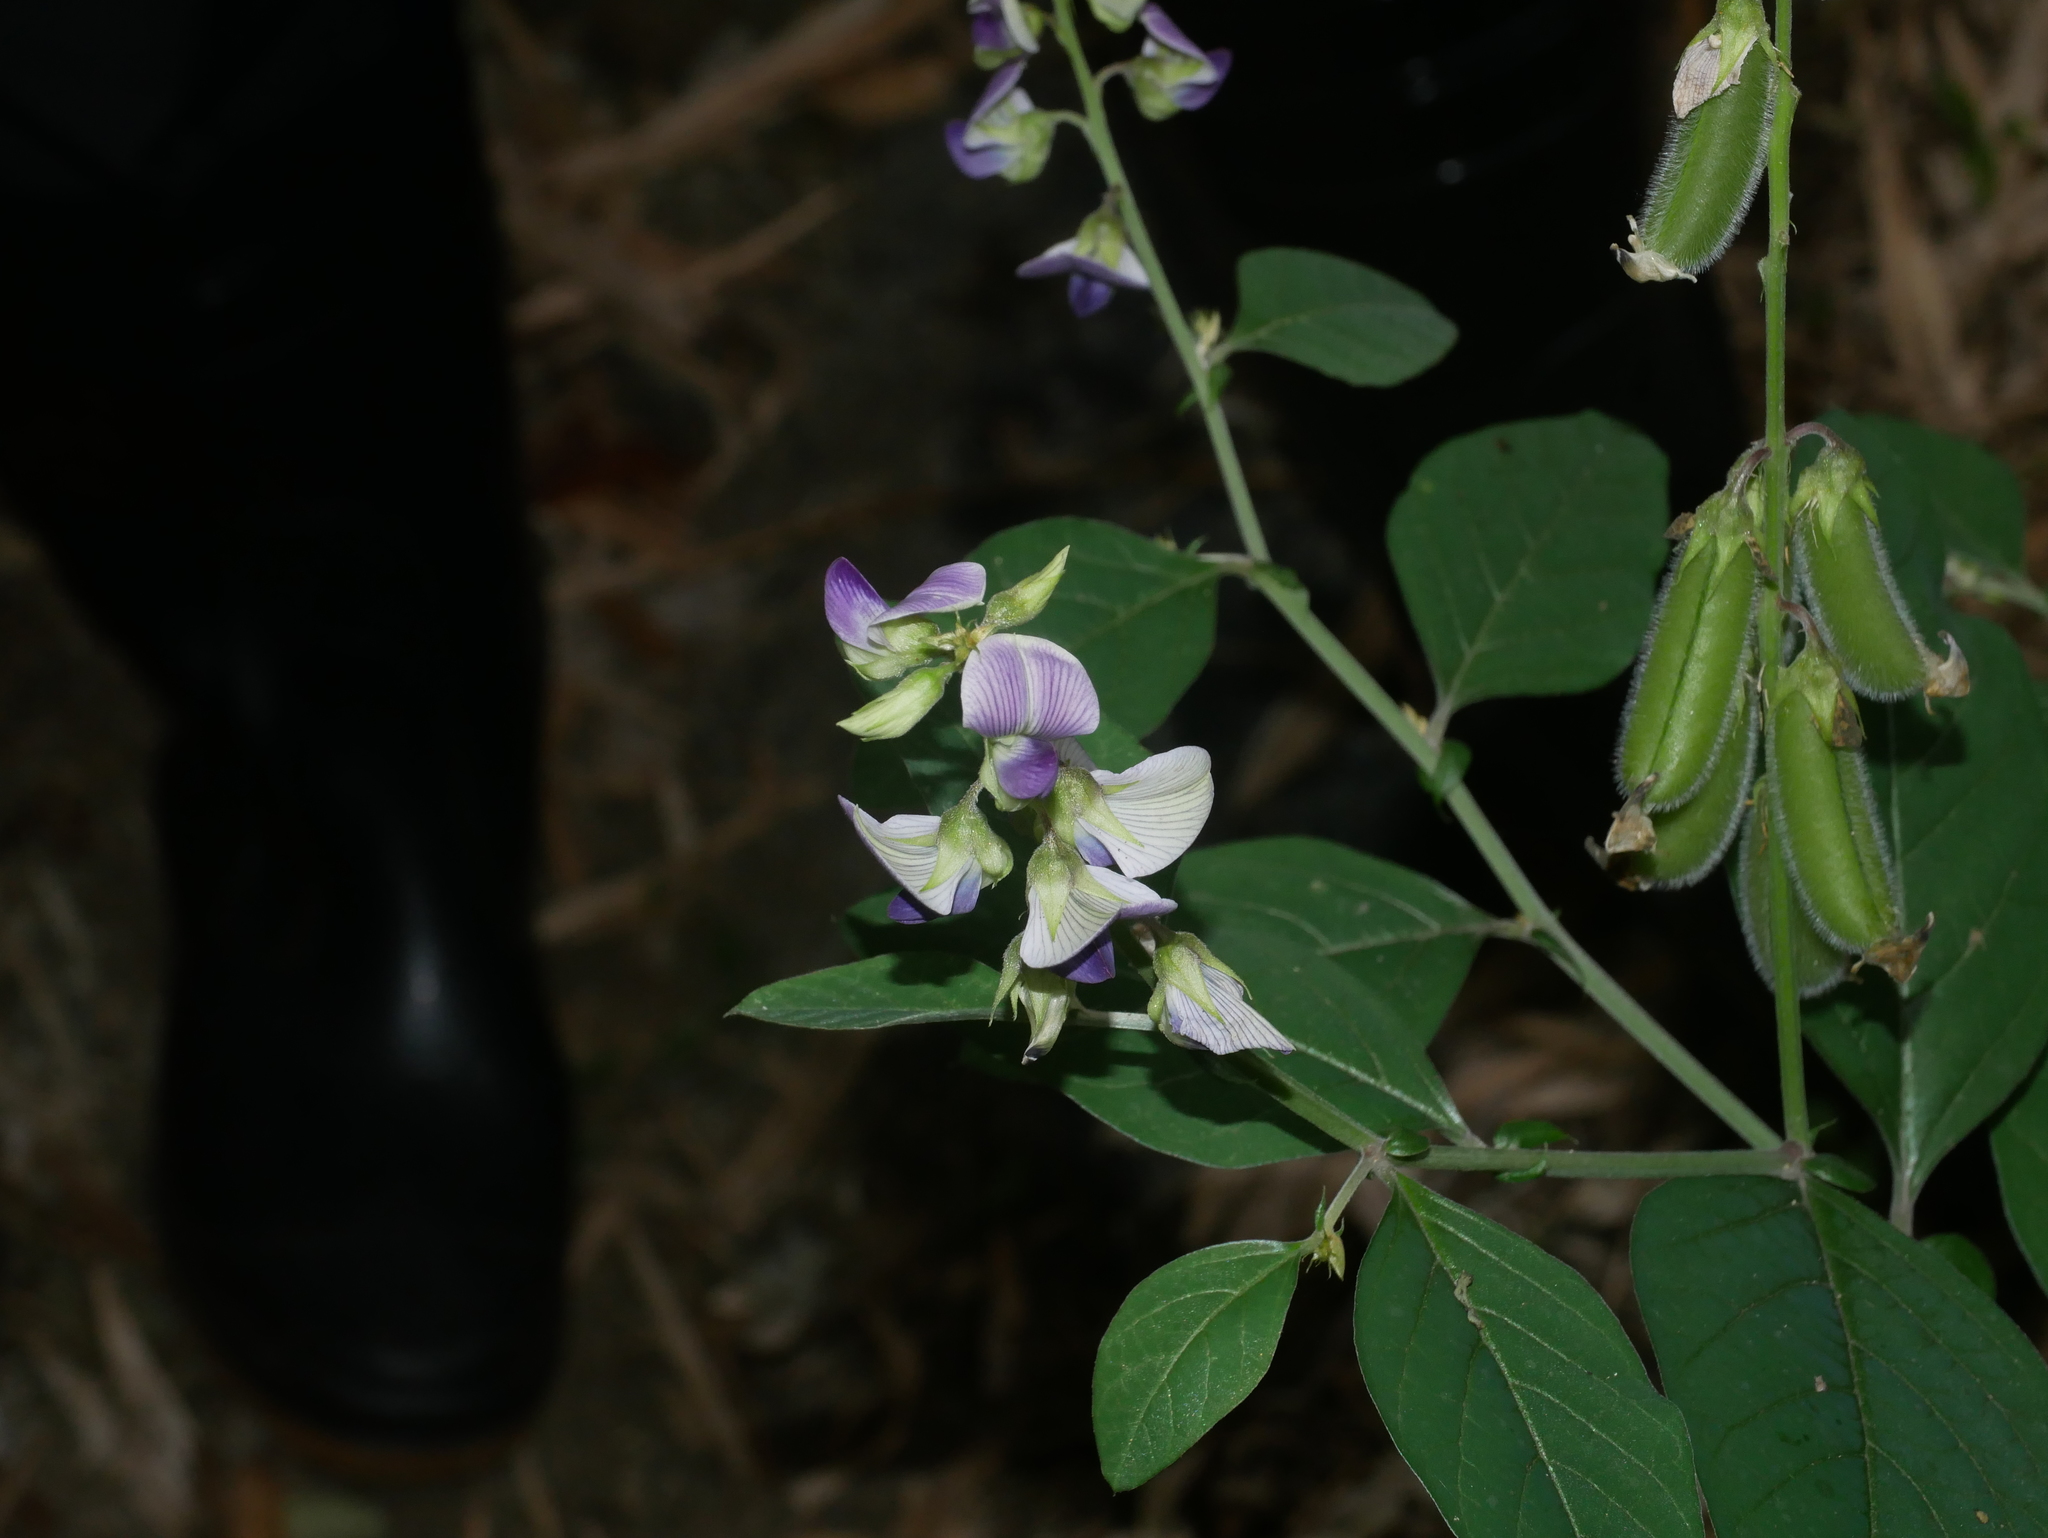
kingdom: Plantae
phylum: Tracheophyta
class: Magnoliopsida
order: Fabales
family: Fabaceae
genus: Crotalaria
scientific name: Crotalaria verrucosa
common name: Blue rattlesnake
